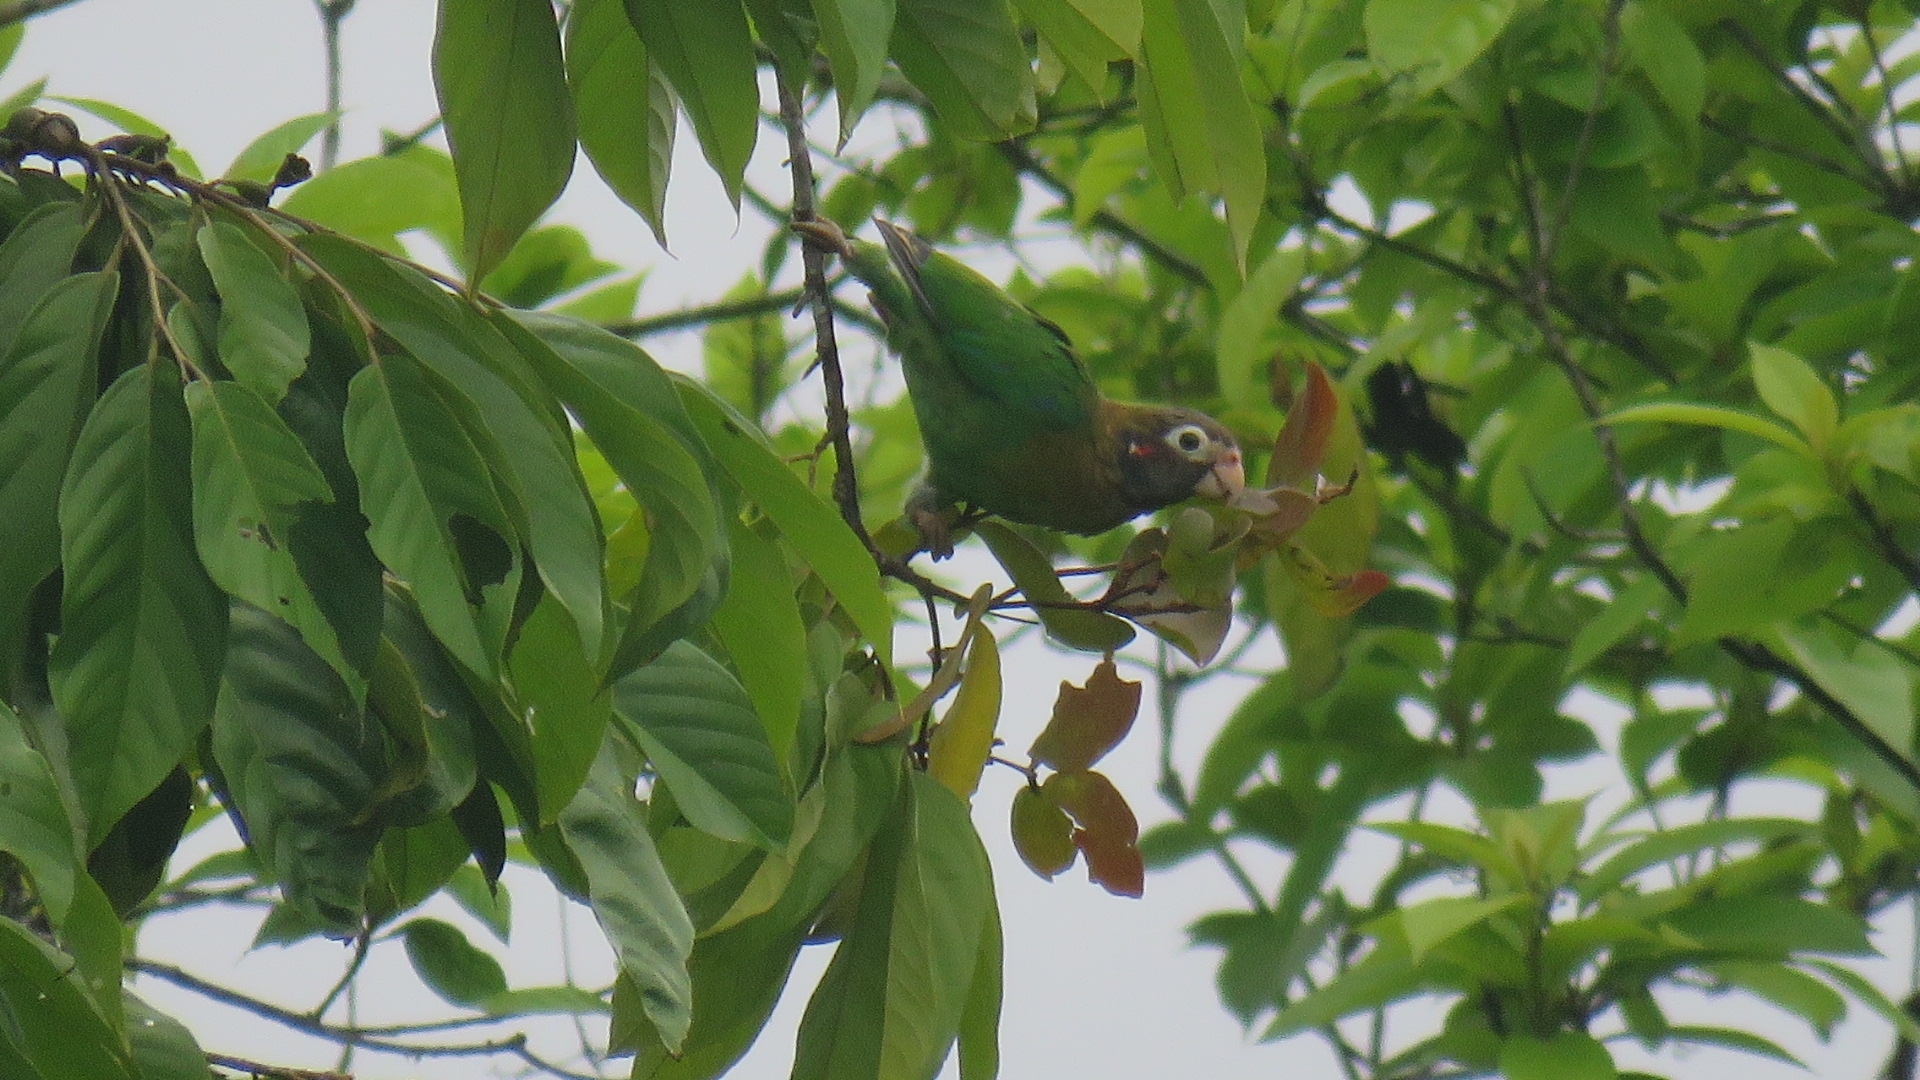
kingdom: Animalia
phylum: Chordata
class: Aves
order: Psittaciformes
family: Psittacidae
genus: Pionopsitta
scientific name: Pionopsitta haematotis
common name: Brown-hooded parrot
